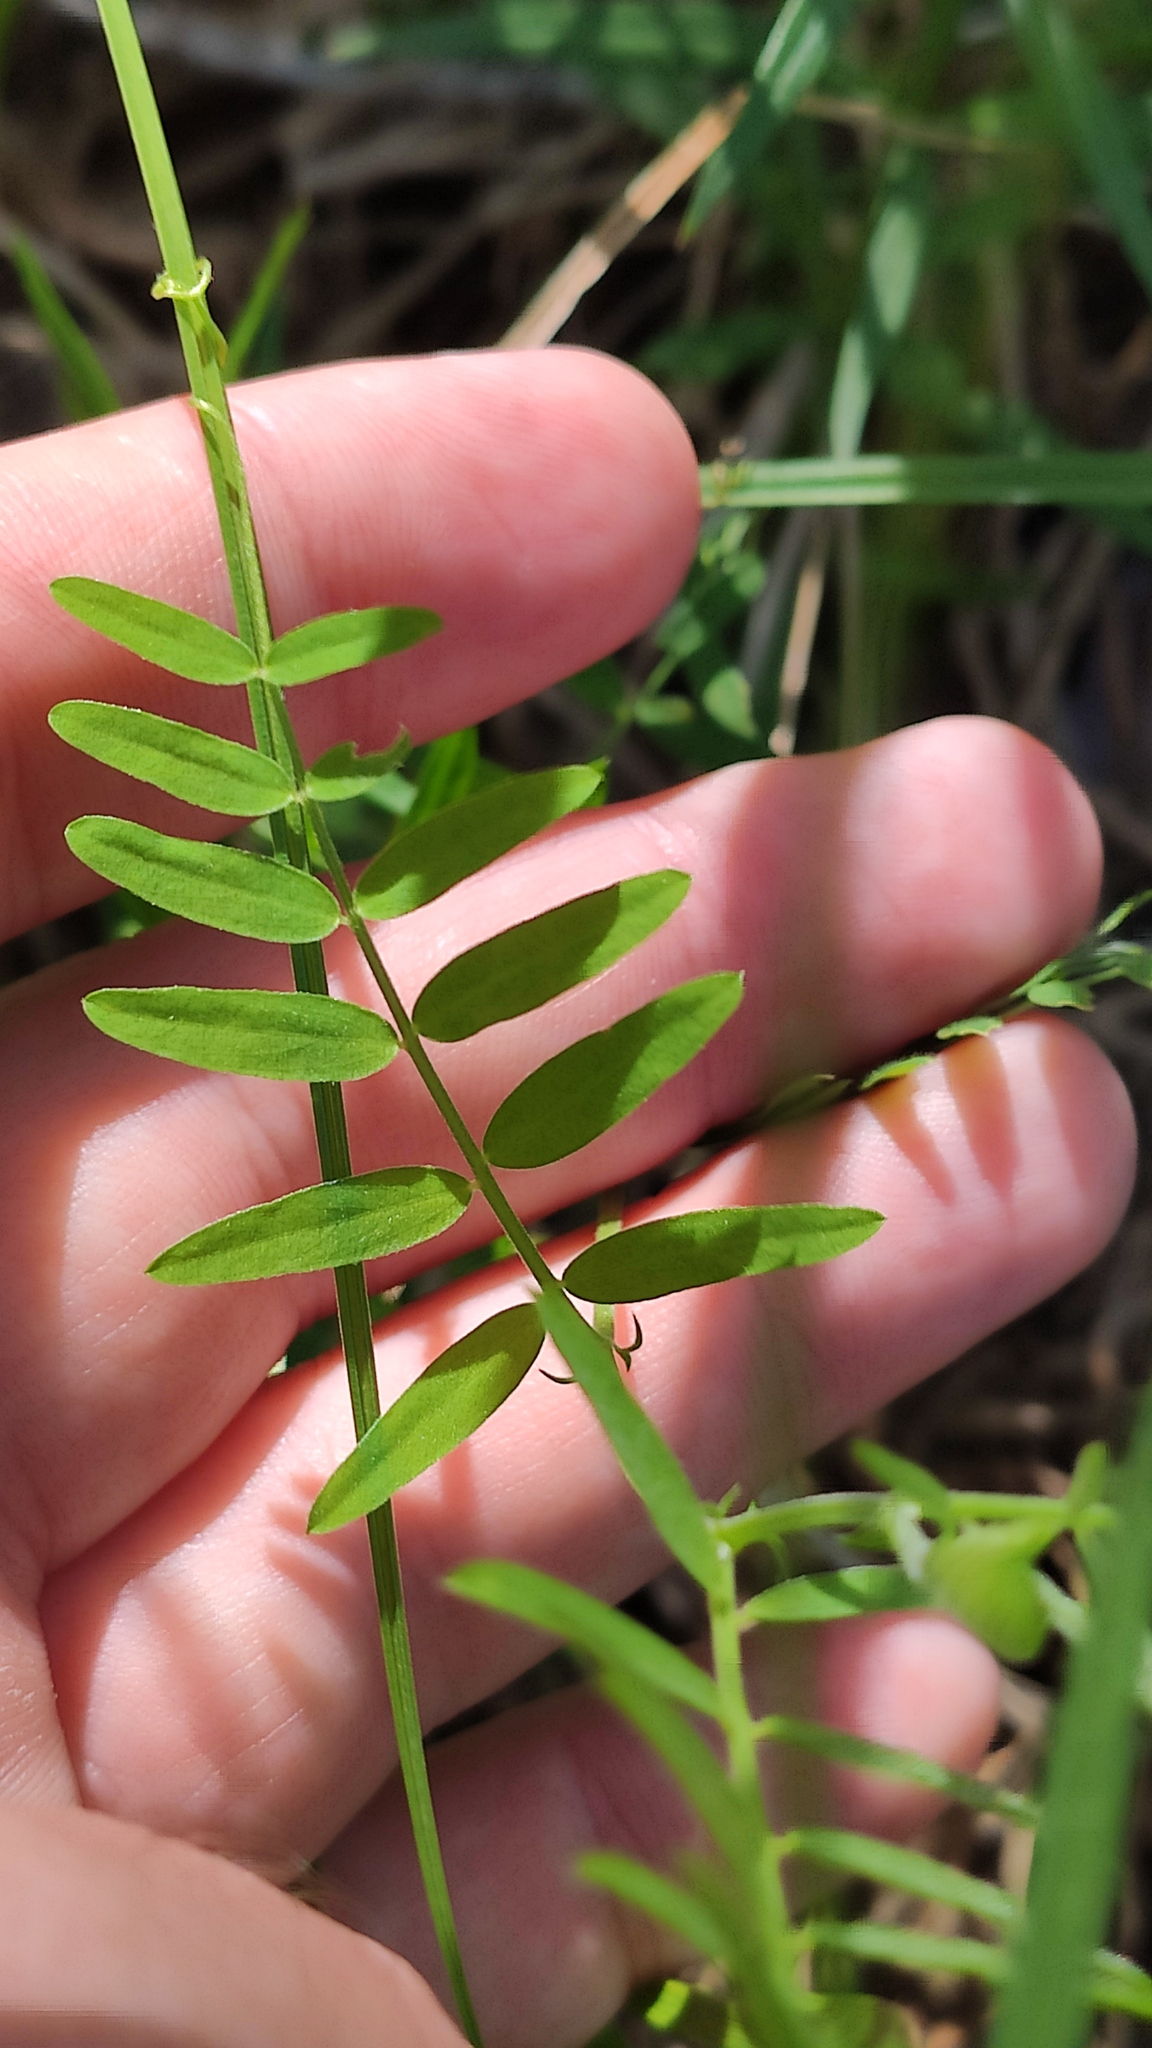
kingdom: Plantae
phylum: Tracheophyta
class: Magnoliopsida
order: Fabales
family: Fabaceae
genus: Vicia
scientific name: Vicia cracca
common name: Bird vetch
